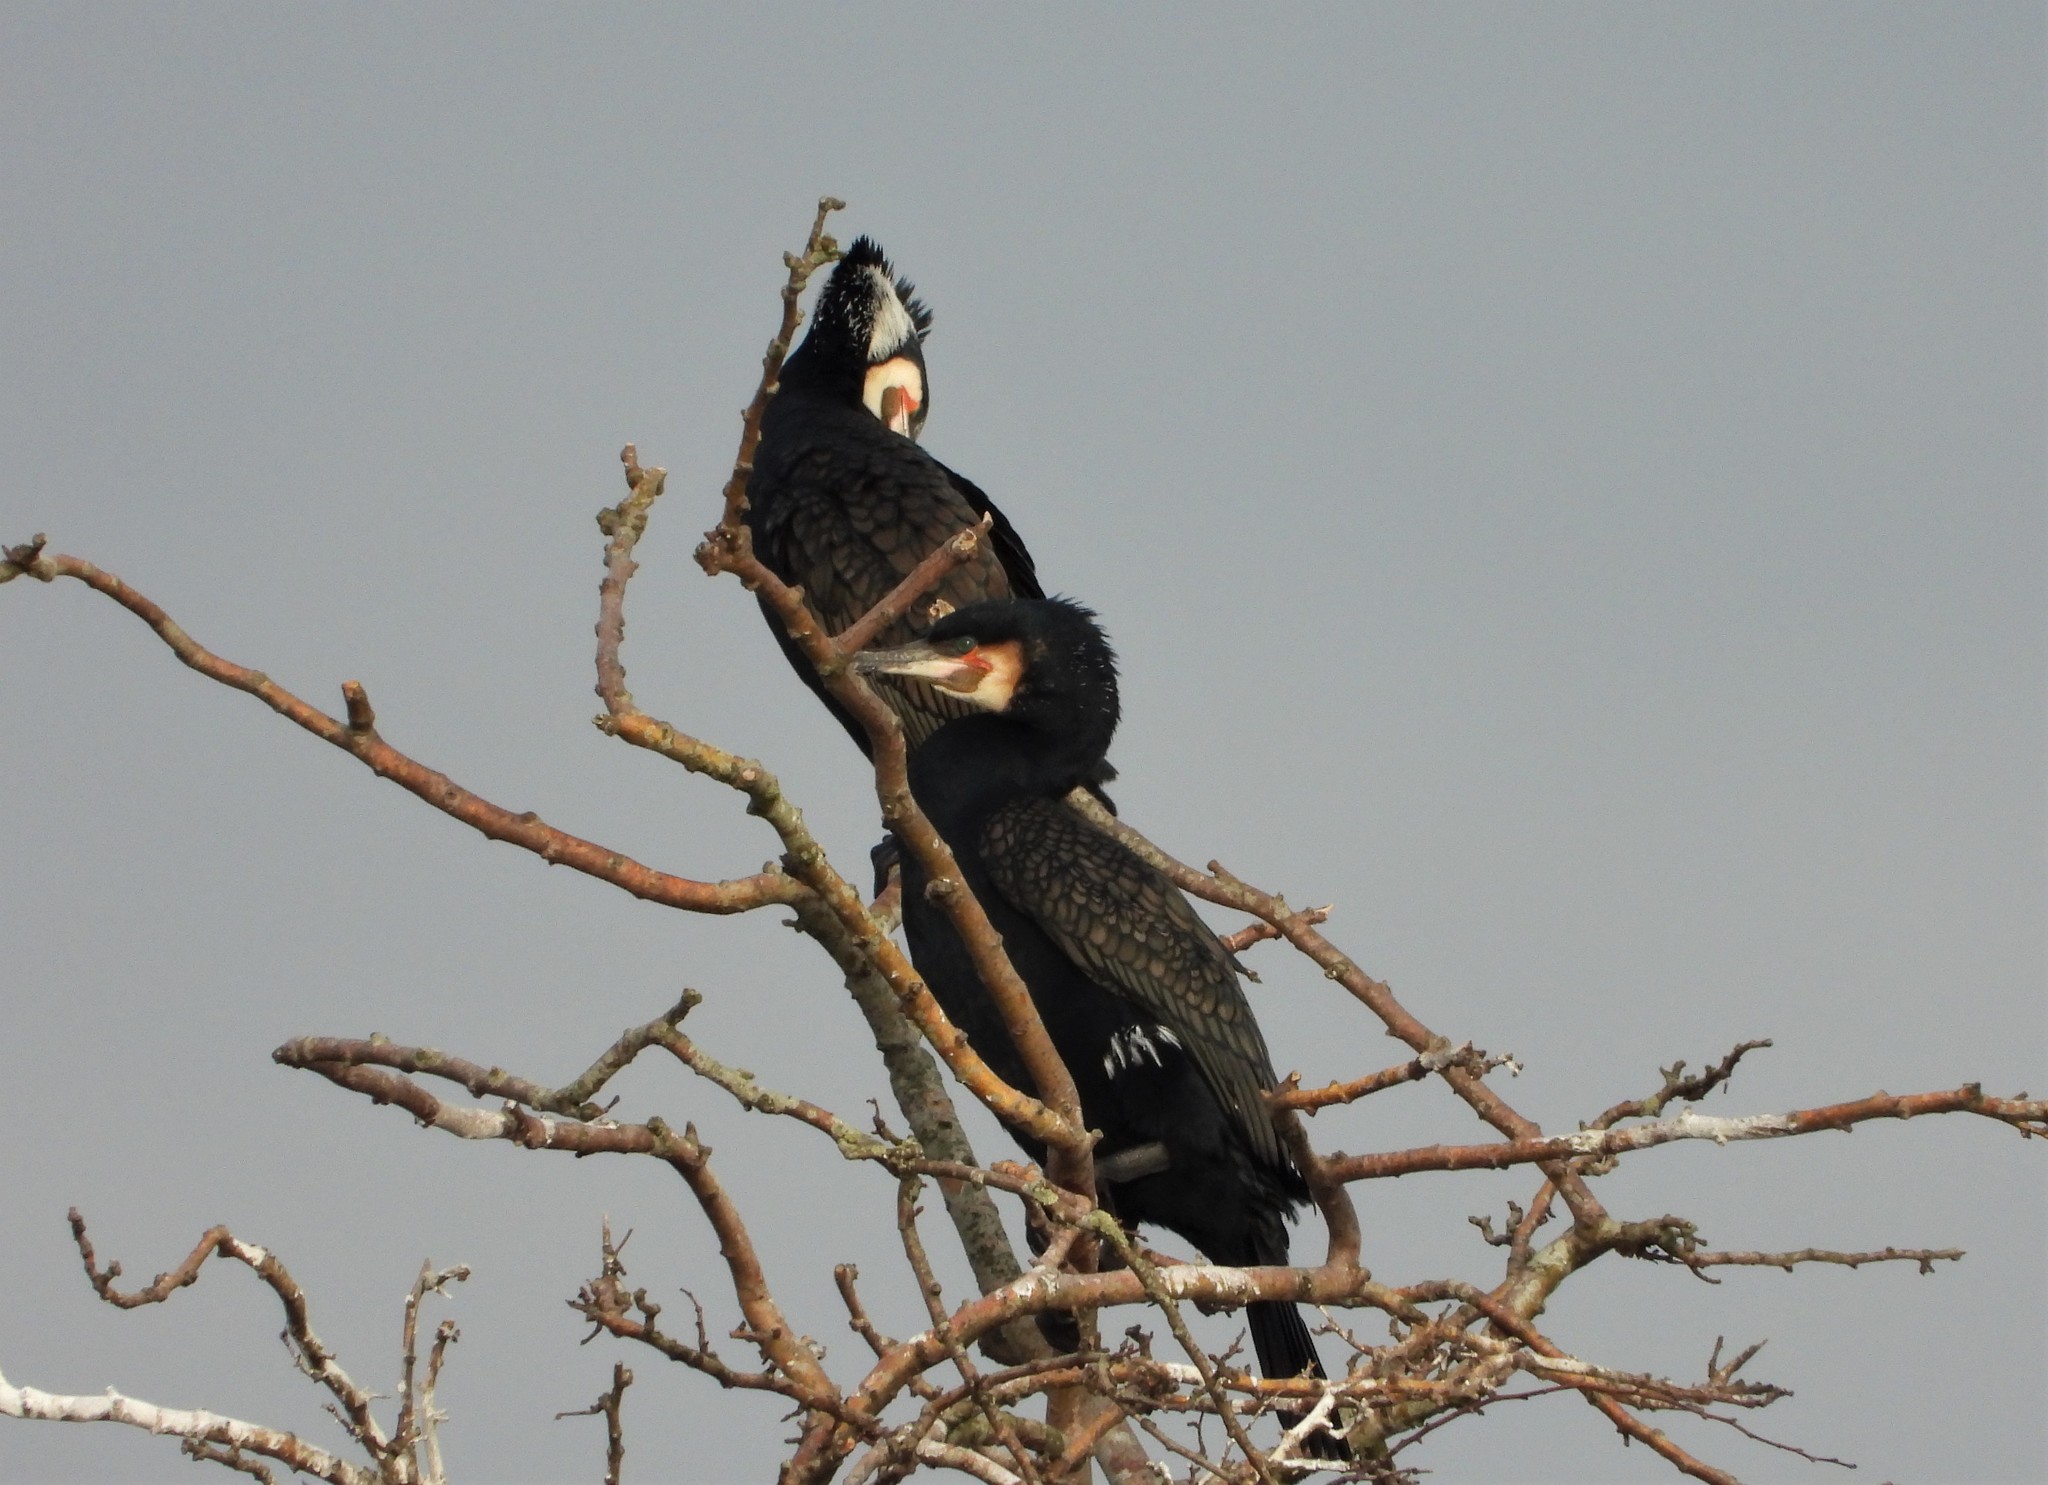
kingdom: Animalia
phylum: Chordata
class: Aves
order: Suliformes
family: Phalacrocoracidae
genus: Phalacrocorax
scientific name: Phalacrocorax carbo
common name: Great cormorant
